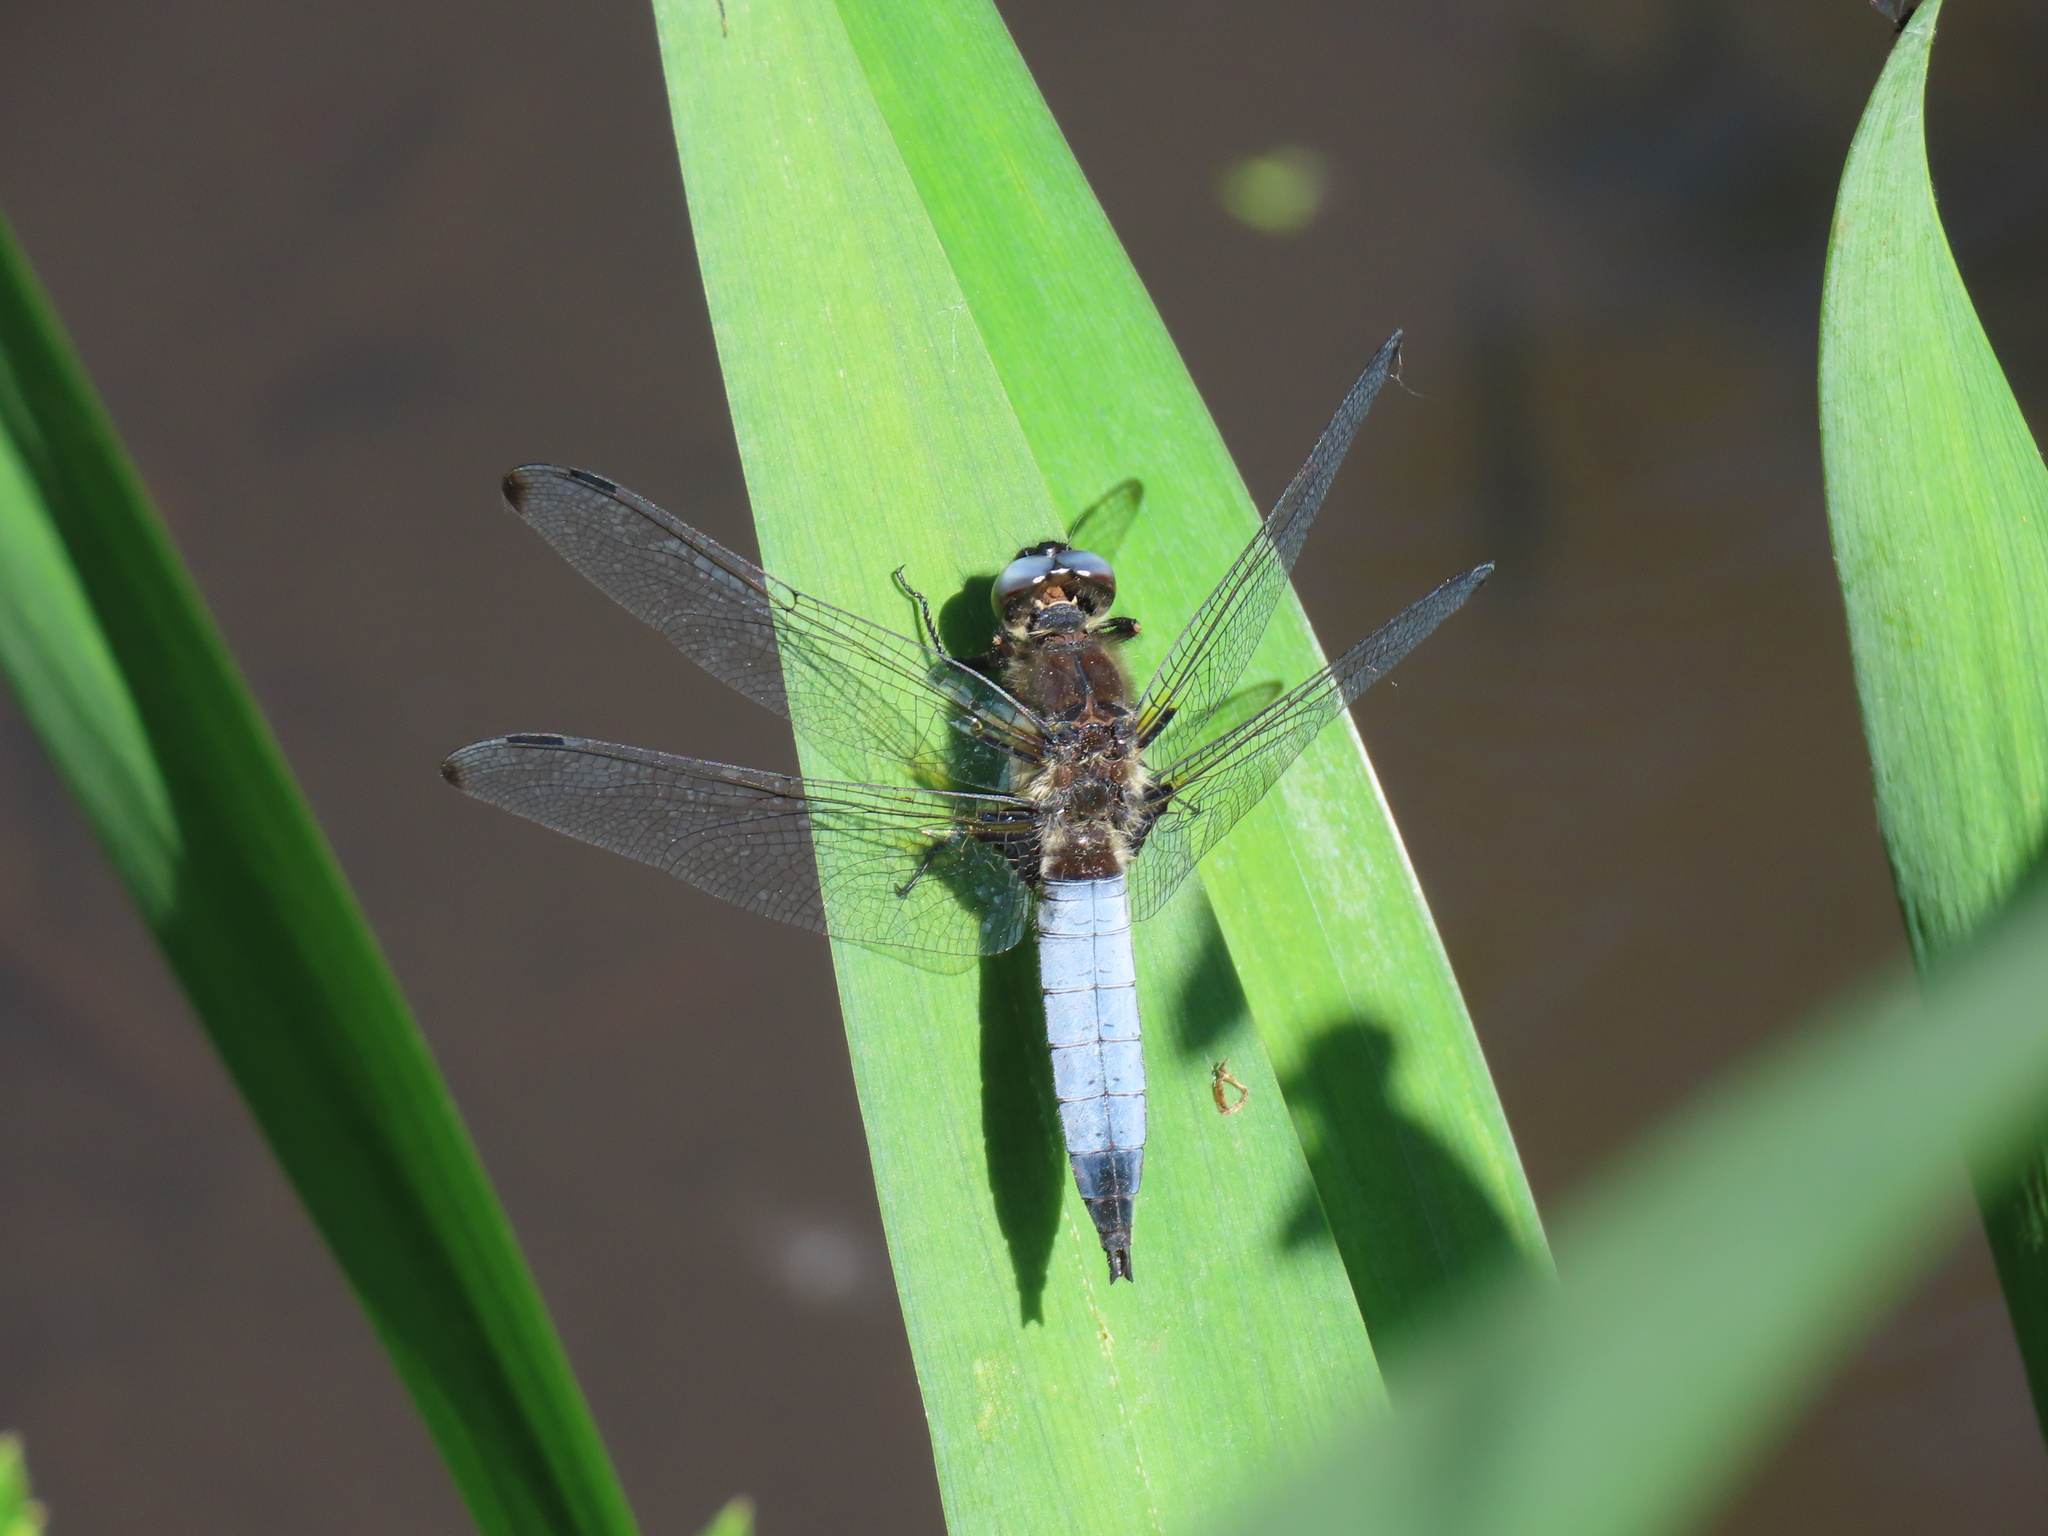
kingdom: Animalia
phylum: Arthropoda
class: Insecta
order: Odonata
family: Libellulidae
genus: Libellula
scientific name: Libellula fulva
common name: Blue chaser
